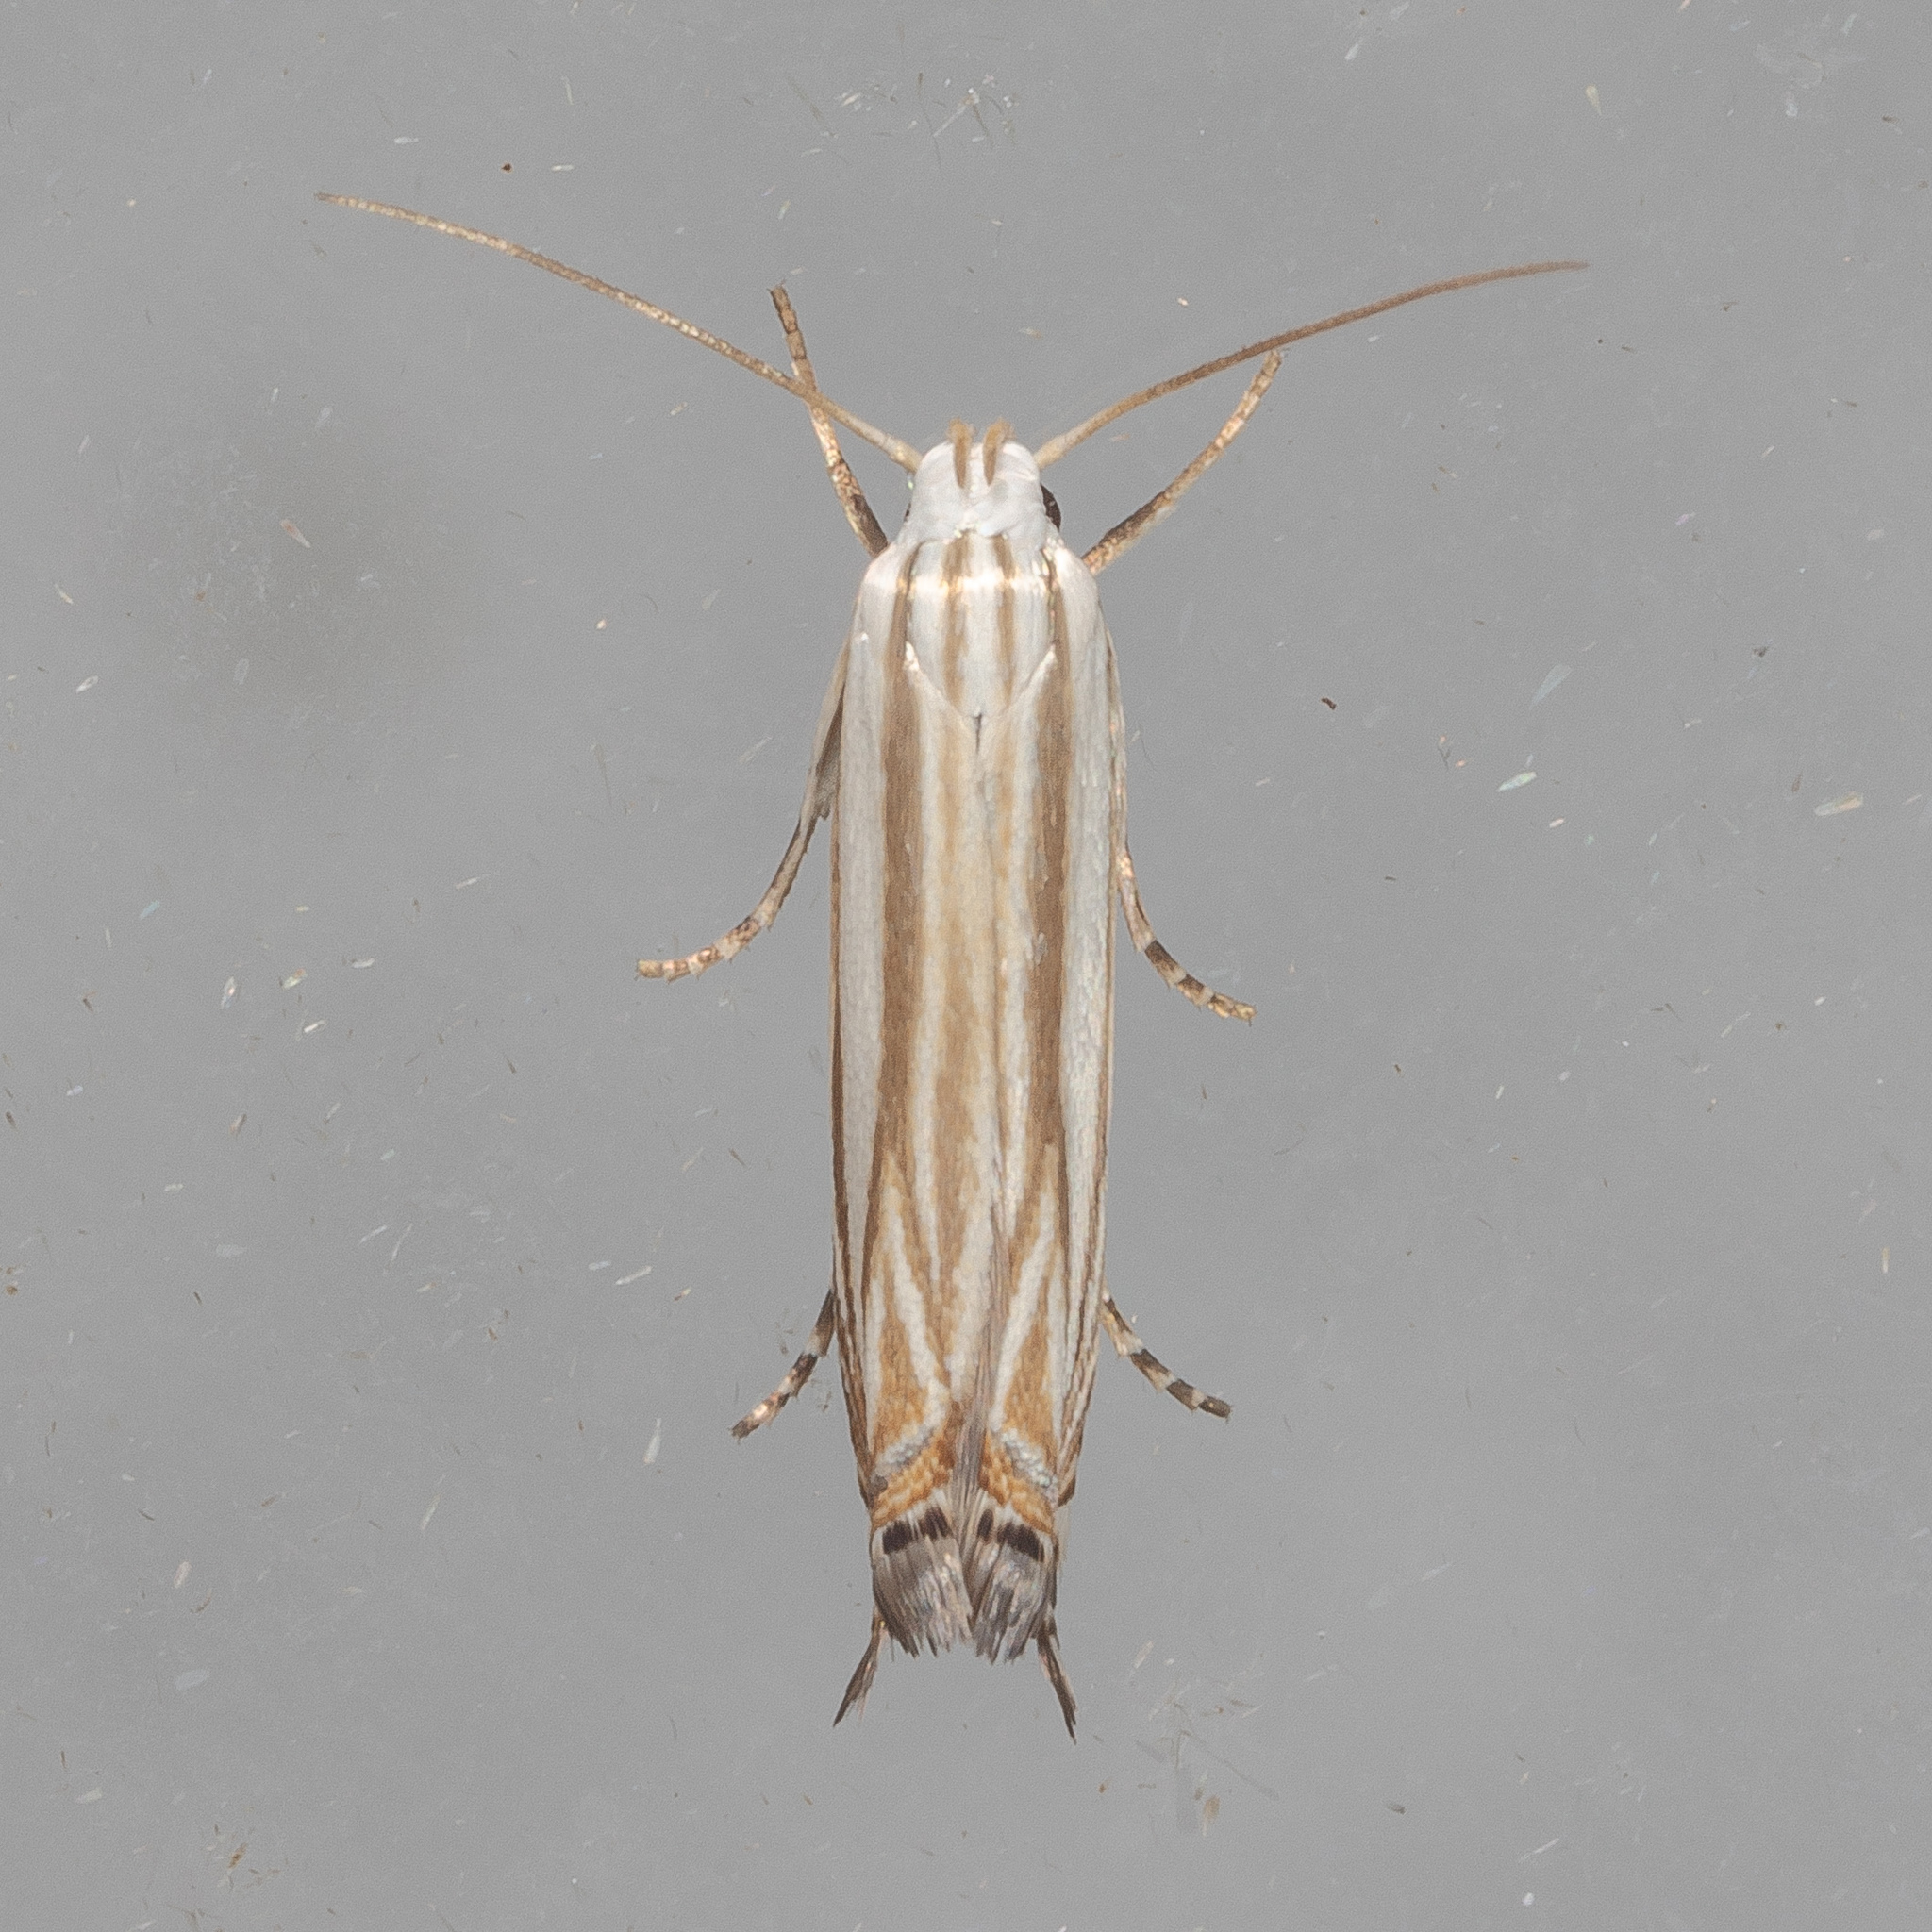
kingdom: Animalia
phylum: Arthropoda
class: Insecta
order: Lepidoptera
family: Gelechiidae
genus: Polyhymno
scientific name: Polyhymno luteostrigella
